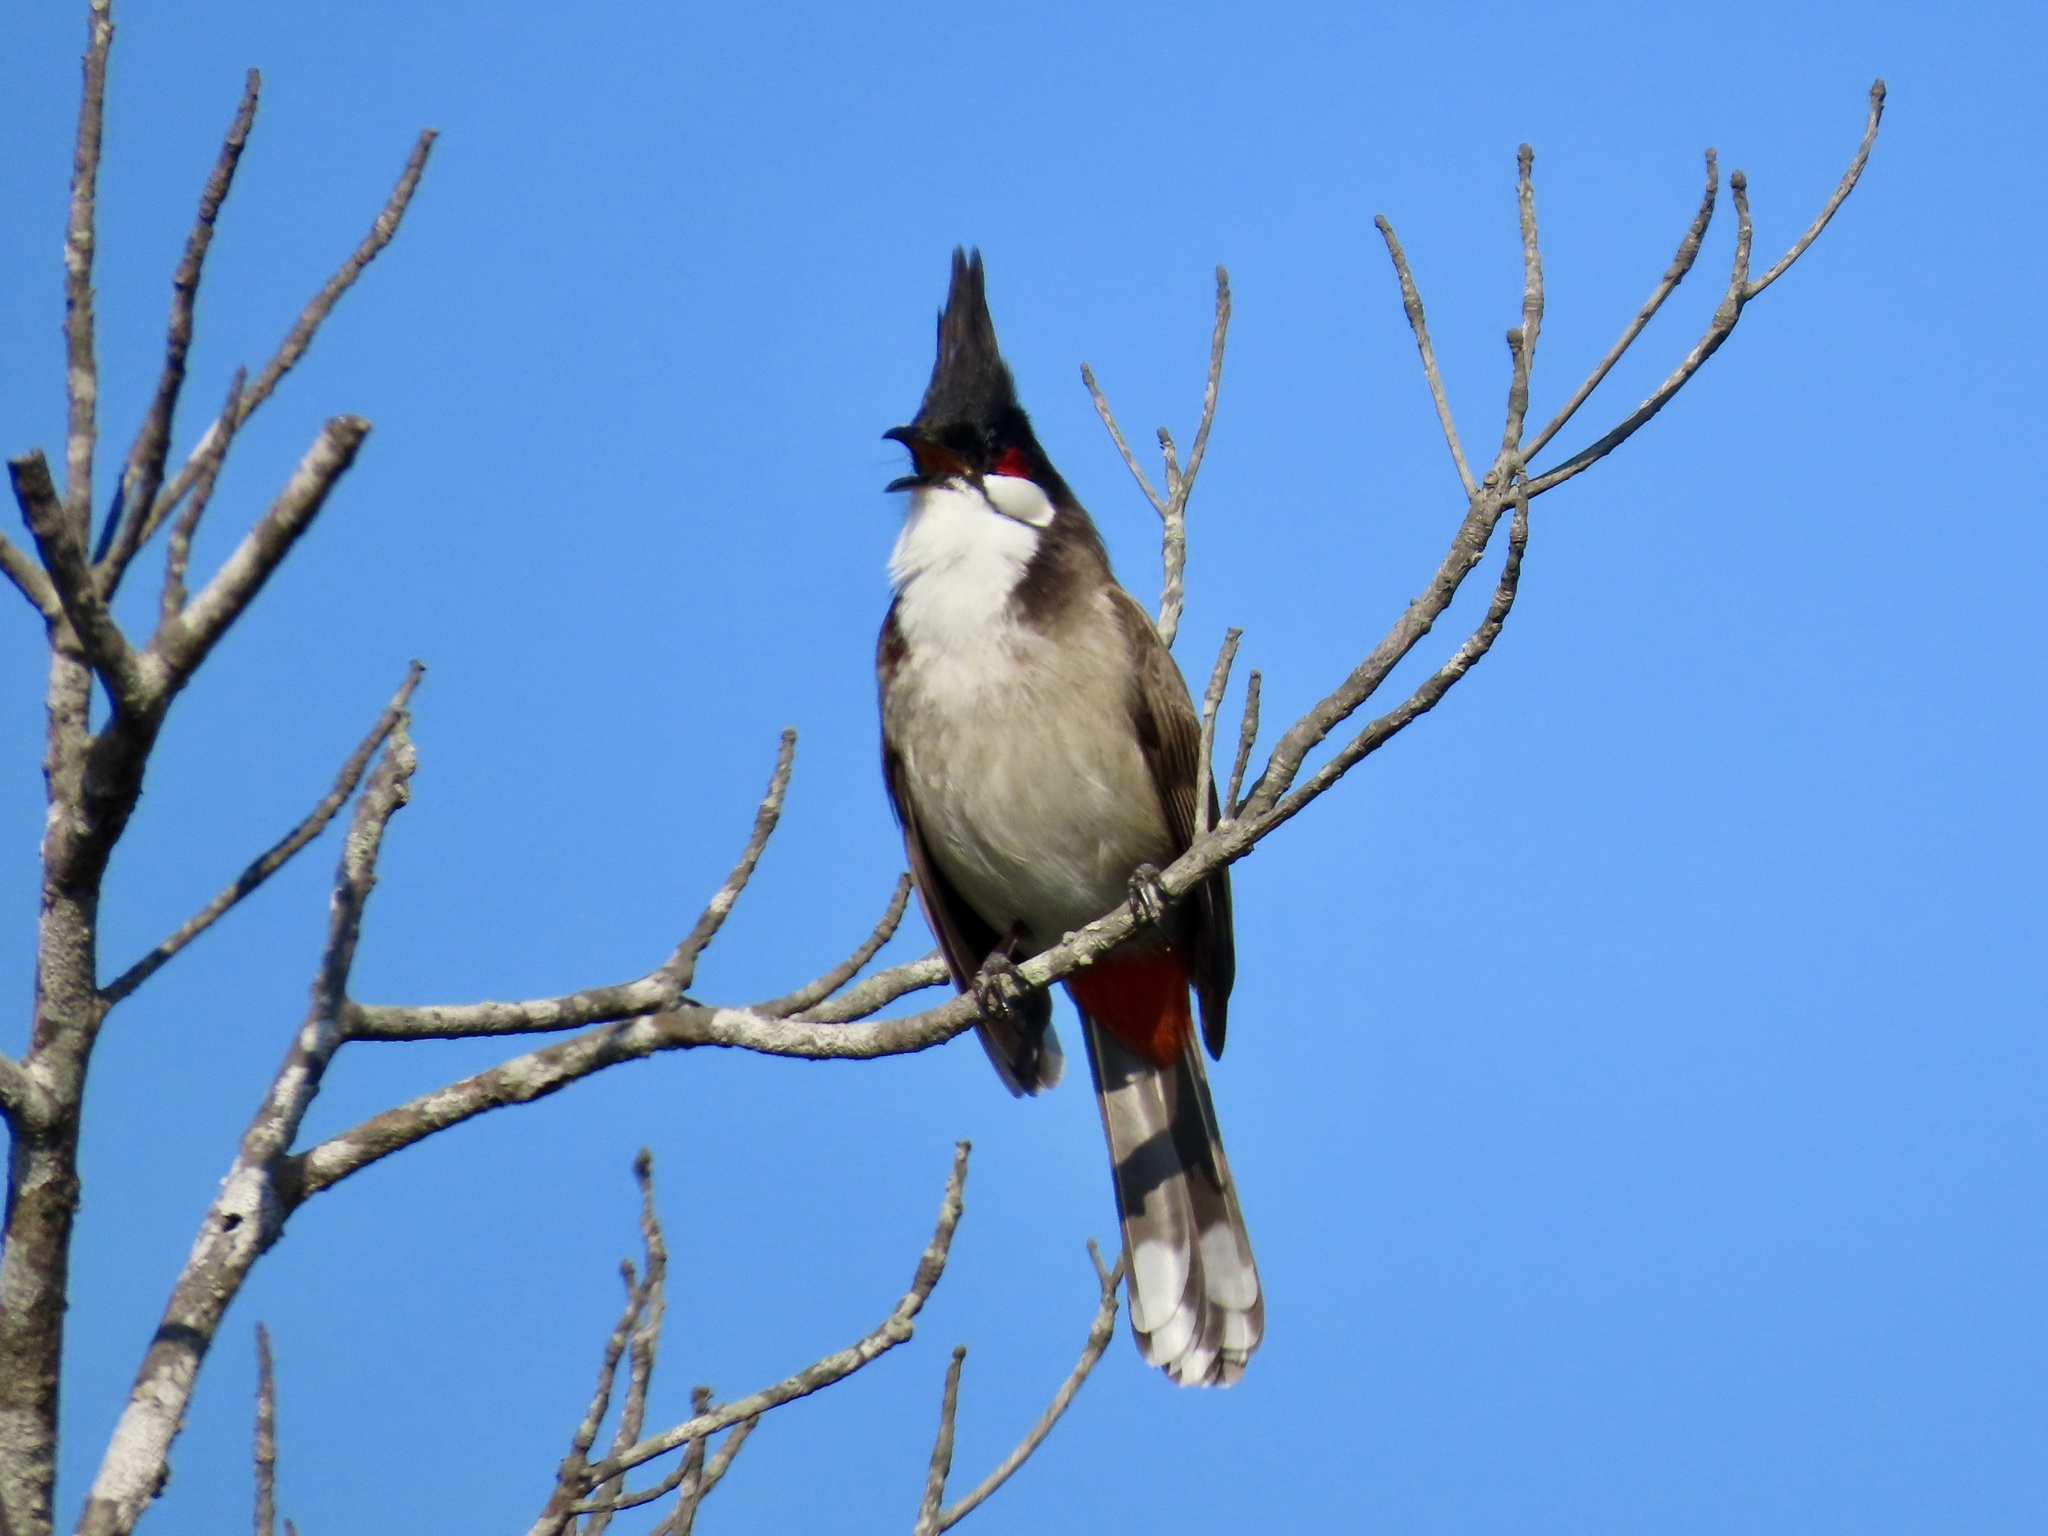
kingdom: Animalia
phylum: Chordata
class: Aves
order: Passeriformes
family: Pycnonotidae
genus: Pycnonotus
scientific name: Pycnonotus jocosus
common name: Red-whiskered bulbul
